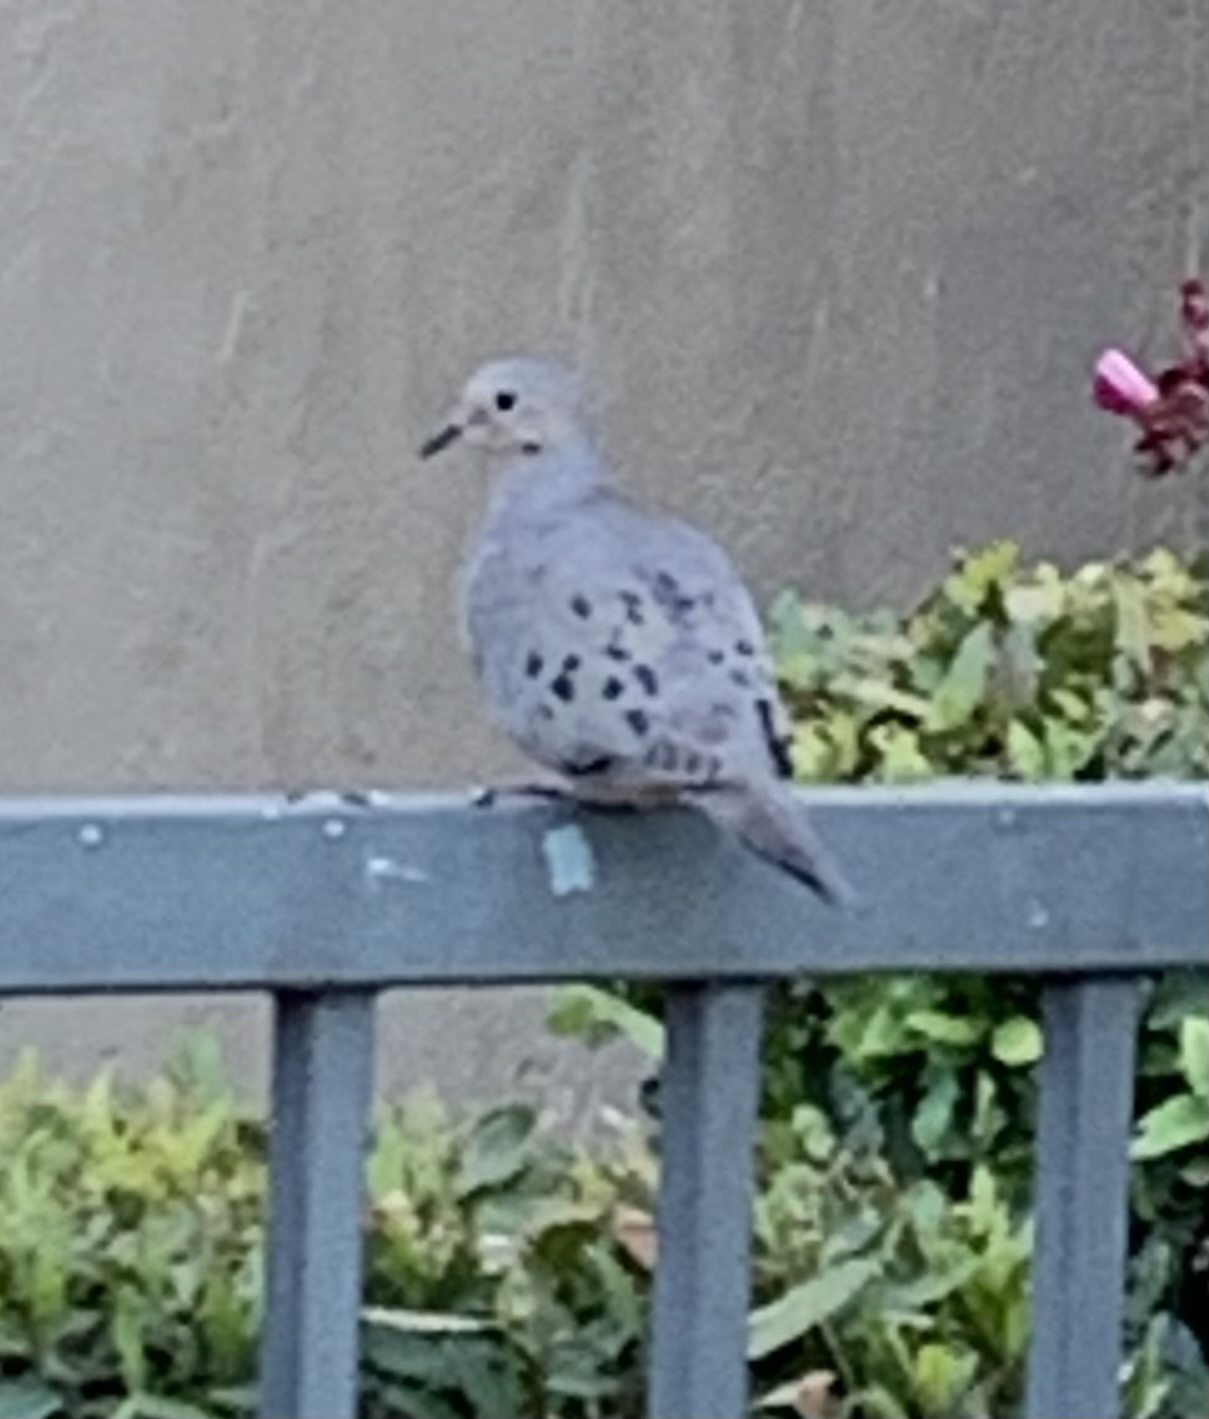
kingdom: Animalia
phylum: Chordata
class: Aves
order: Columbiformes
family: Columbidae
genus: Zenaida
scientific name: Zenaida macroura
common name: Mourning dove
